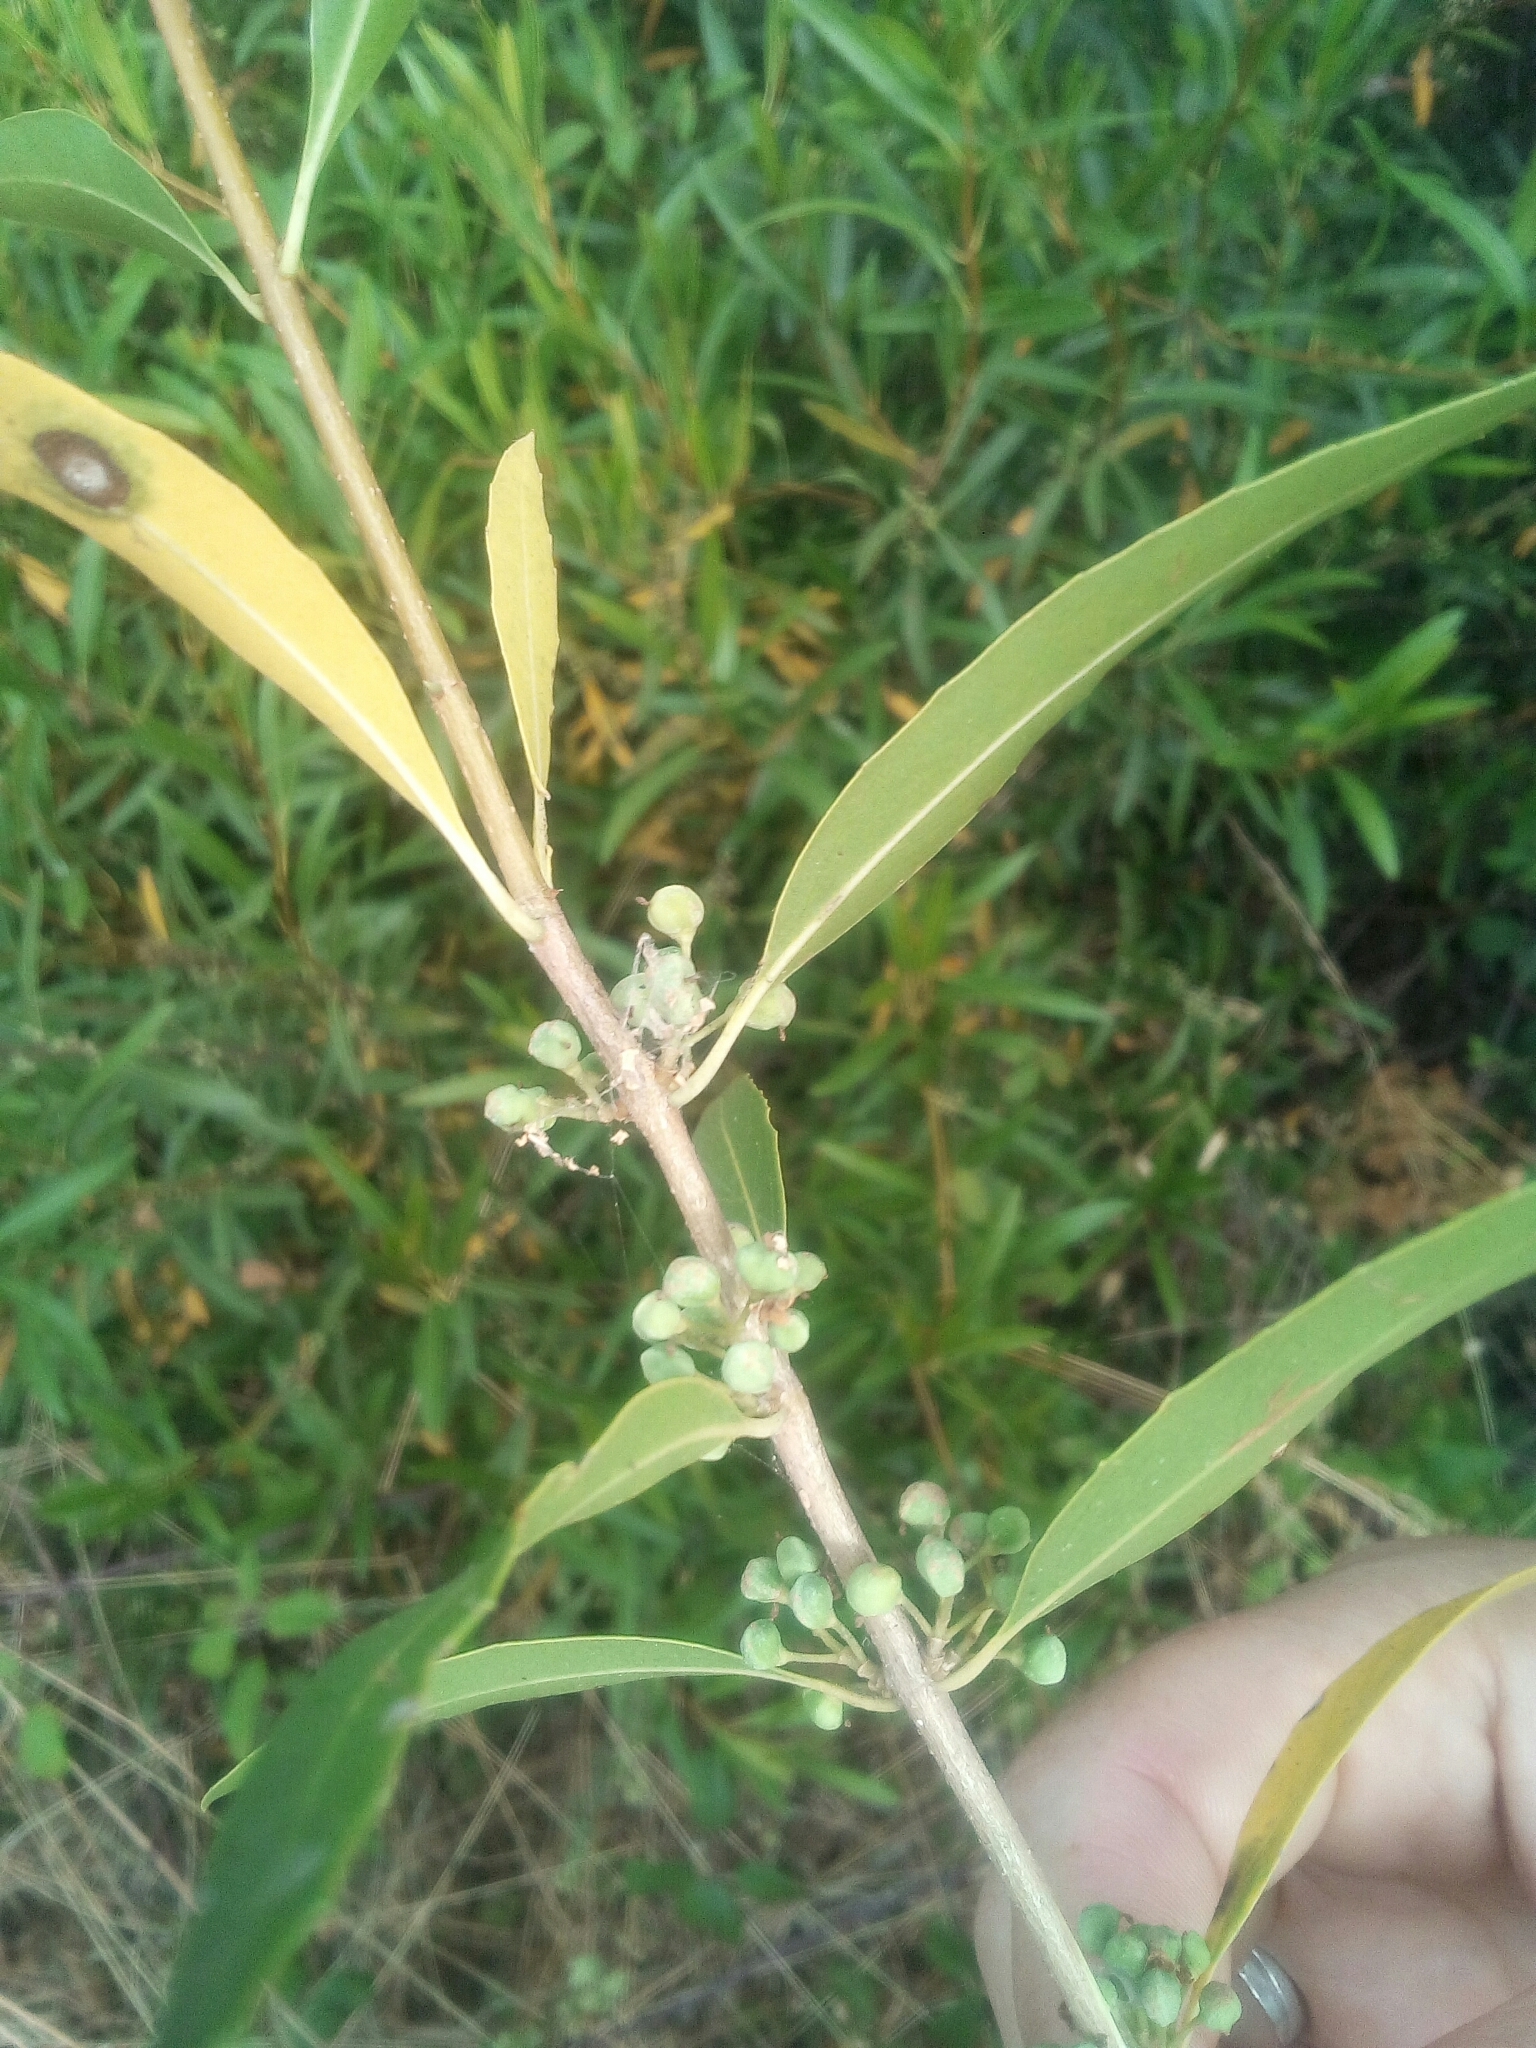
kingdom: Plantae
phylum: Tracheophyta
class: Magnoliopsida
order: Lamiales
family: Oleaceae
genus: Phillyrea
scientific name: Phillyrea angustifolia
